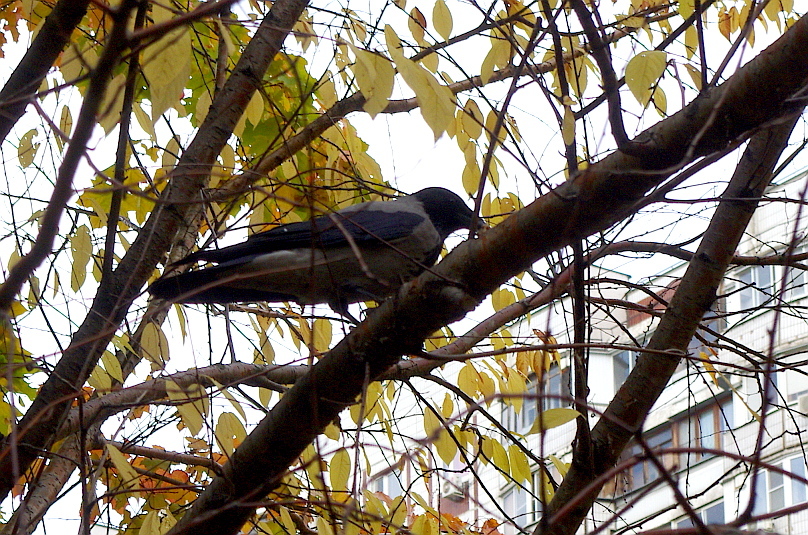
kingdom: Animalia
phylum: Chordata
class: Aves
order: Passeriformes
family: Corvidae
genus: Corvus
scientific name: Corvus cornix
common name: Hooded crow
